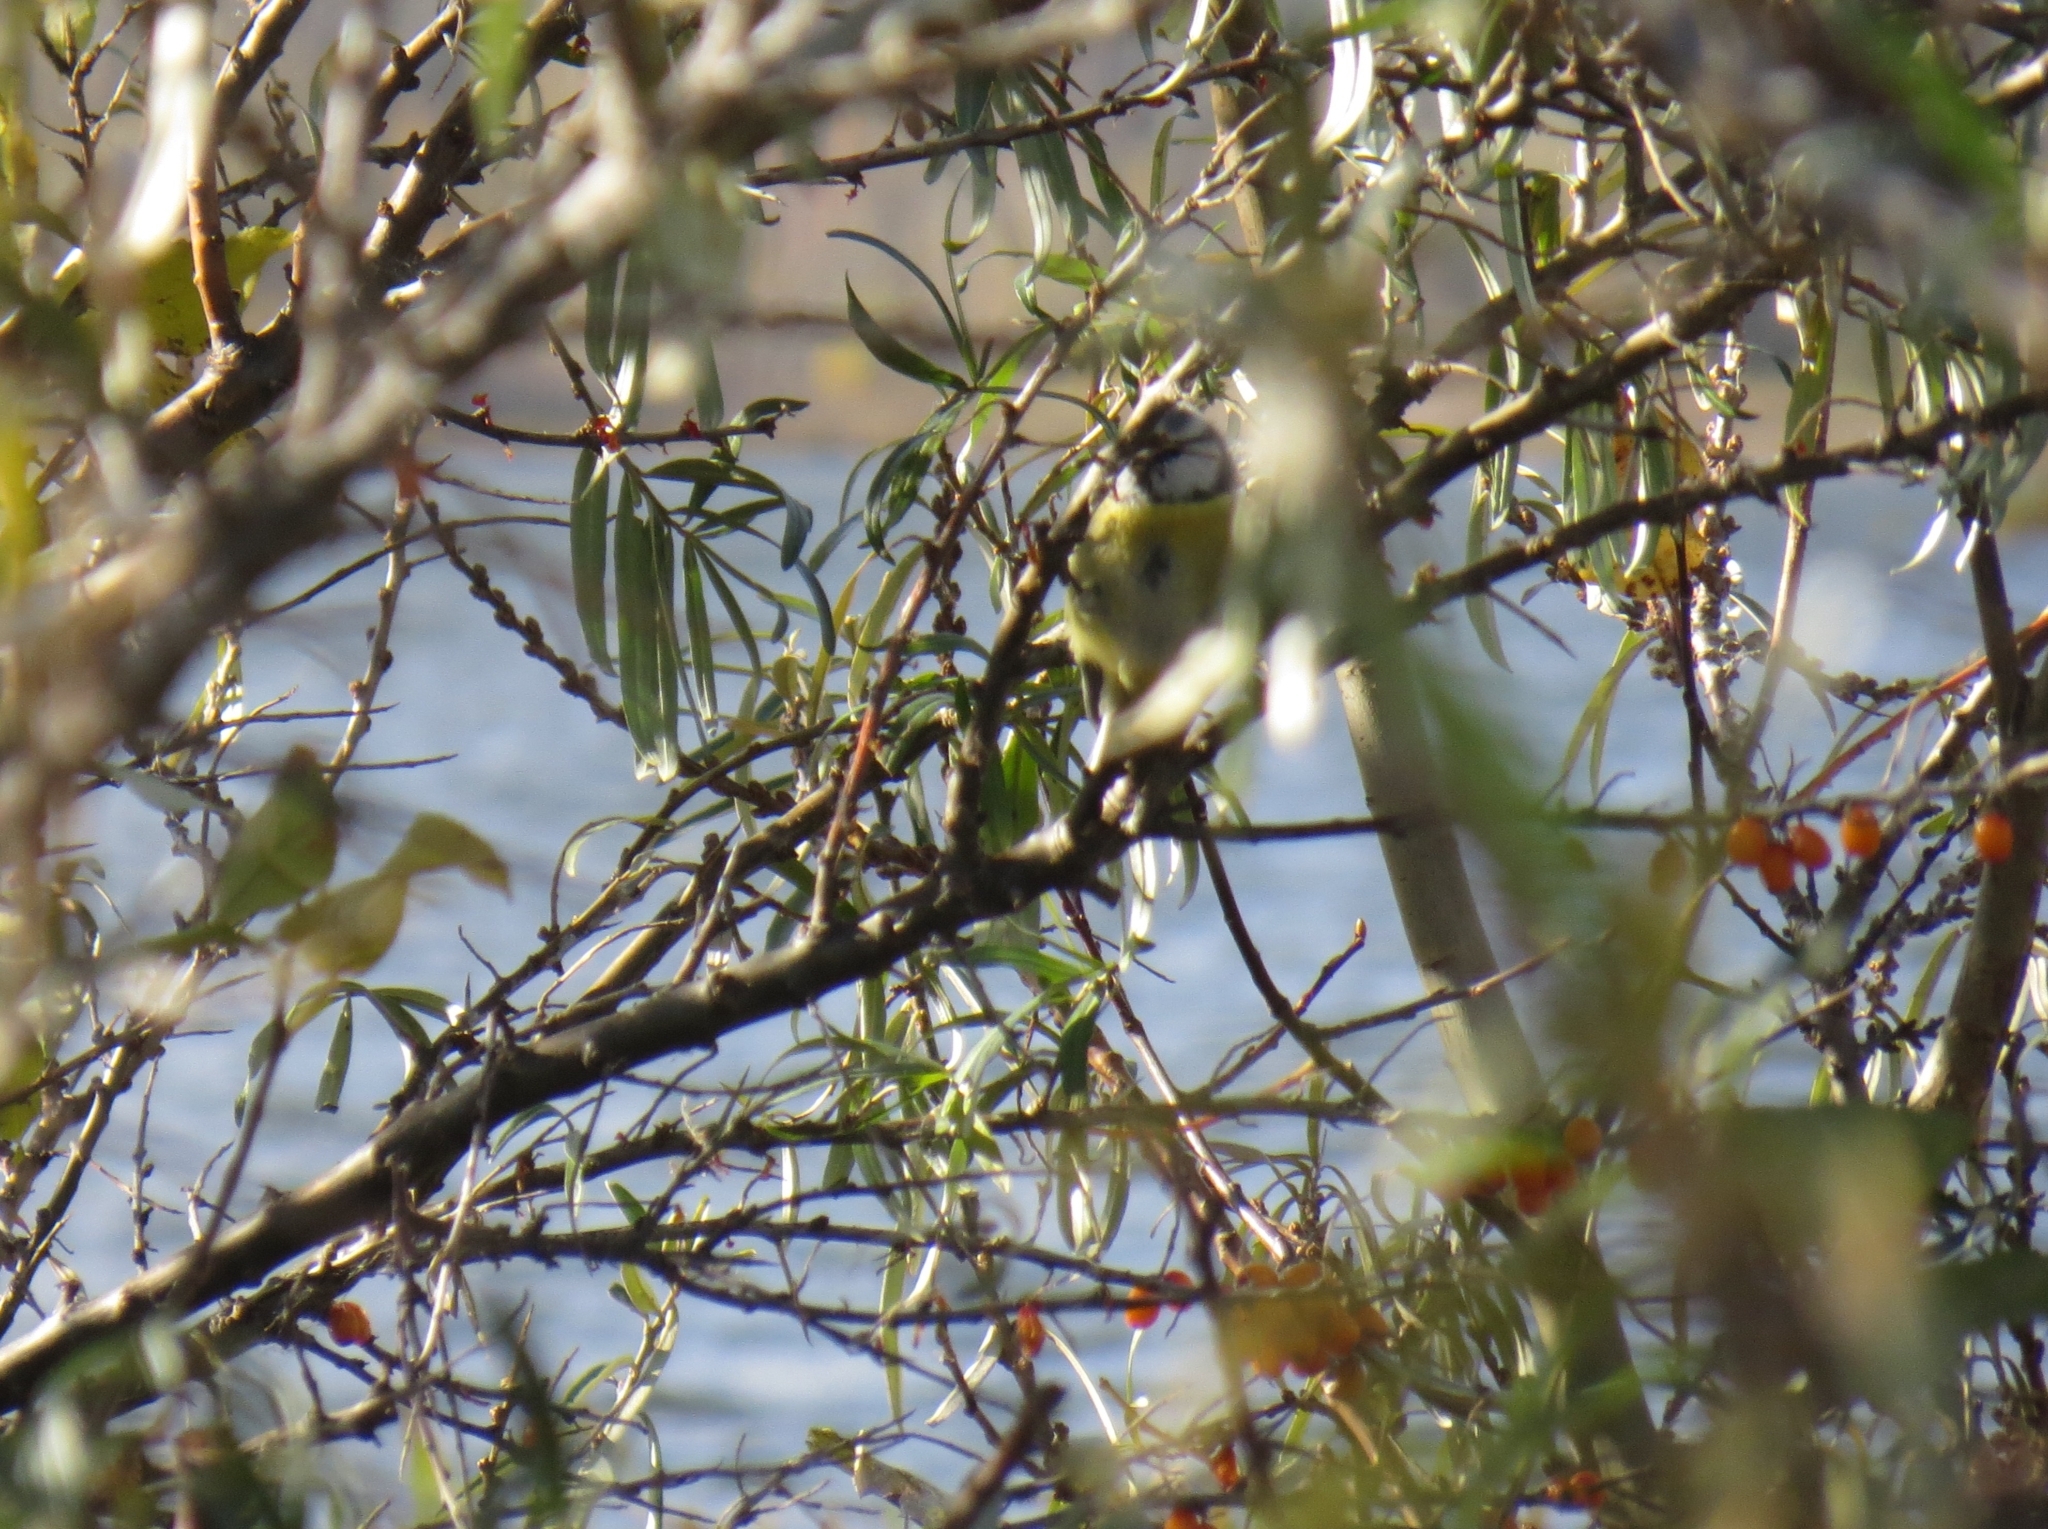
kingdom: Animalia
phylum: Chordata
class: Aves
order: Passeriformes
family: Paridae
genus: Cyanistes
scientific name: Cyanistes caeruleus
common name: Eurasian blue tit
